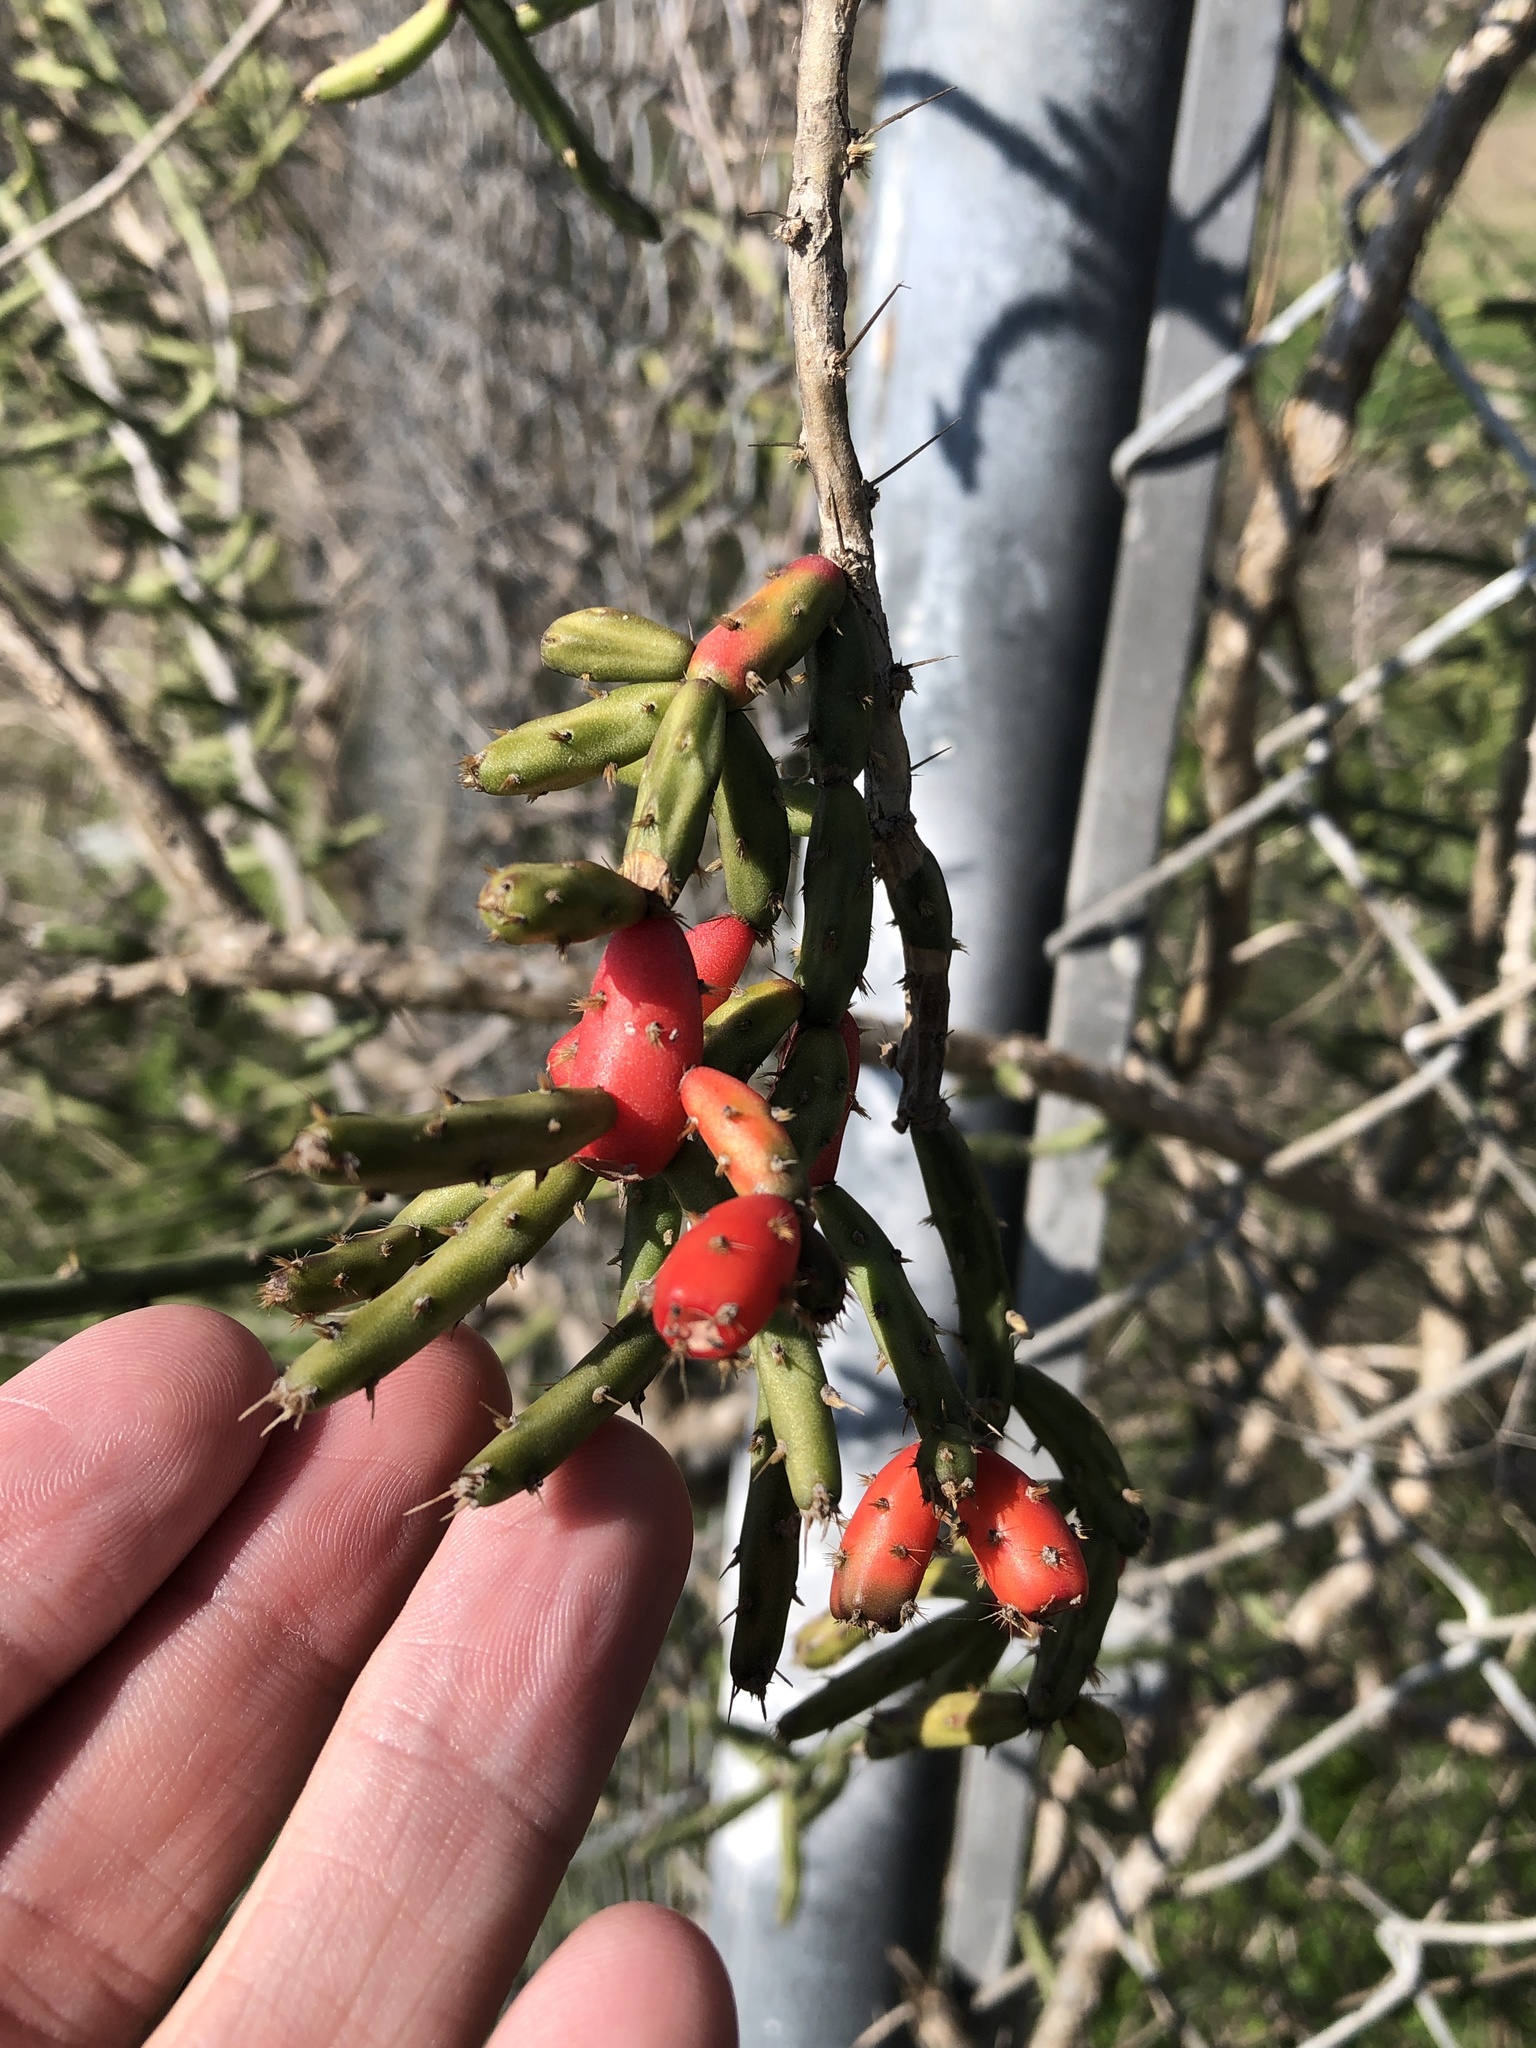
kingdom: Plantae
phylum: Tracheophyta
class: Magnoliopsida
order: Caryophyllales
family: Cactaceae
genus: Cylindropuntia
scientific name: Cylindropuntia leptocaulis
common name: Christmas cactus
